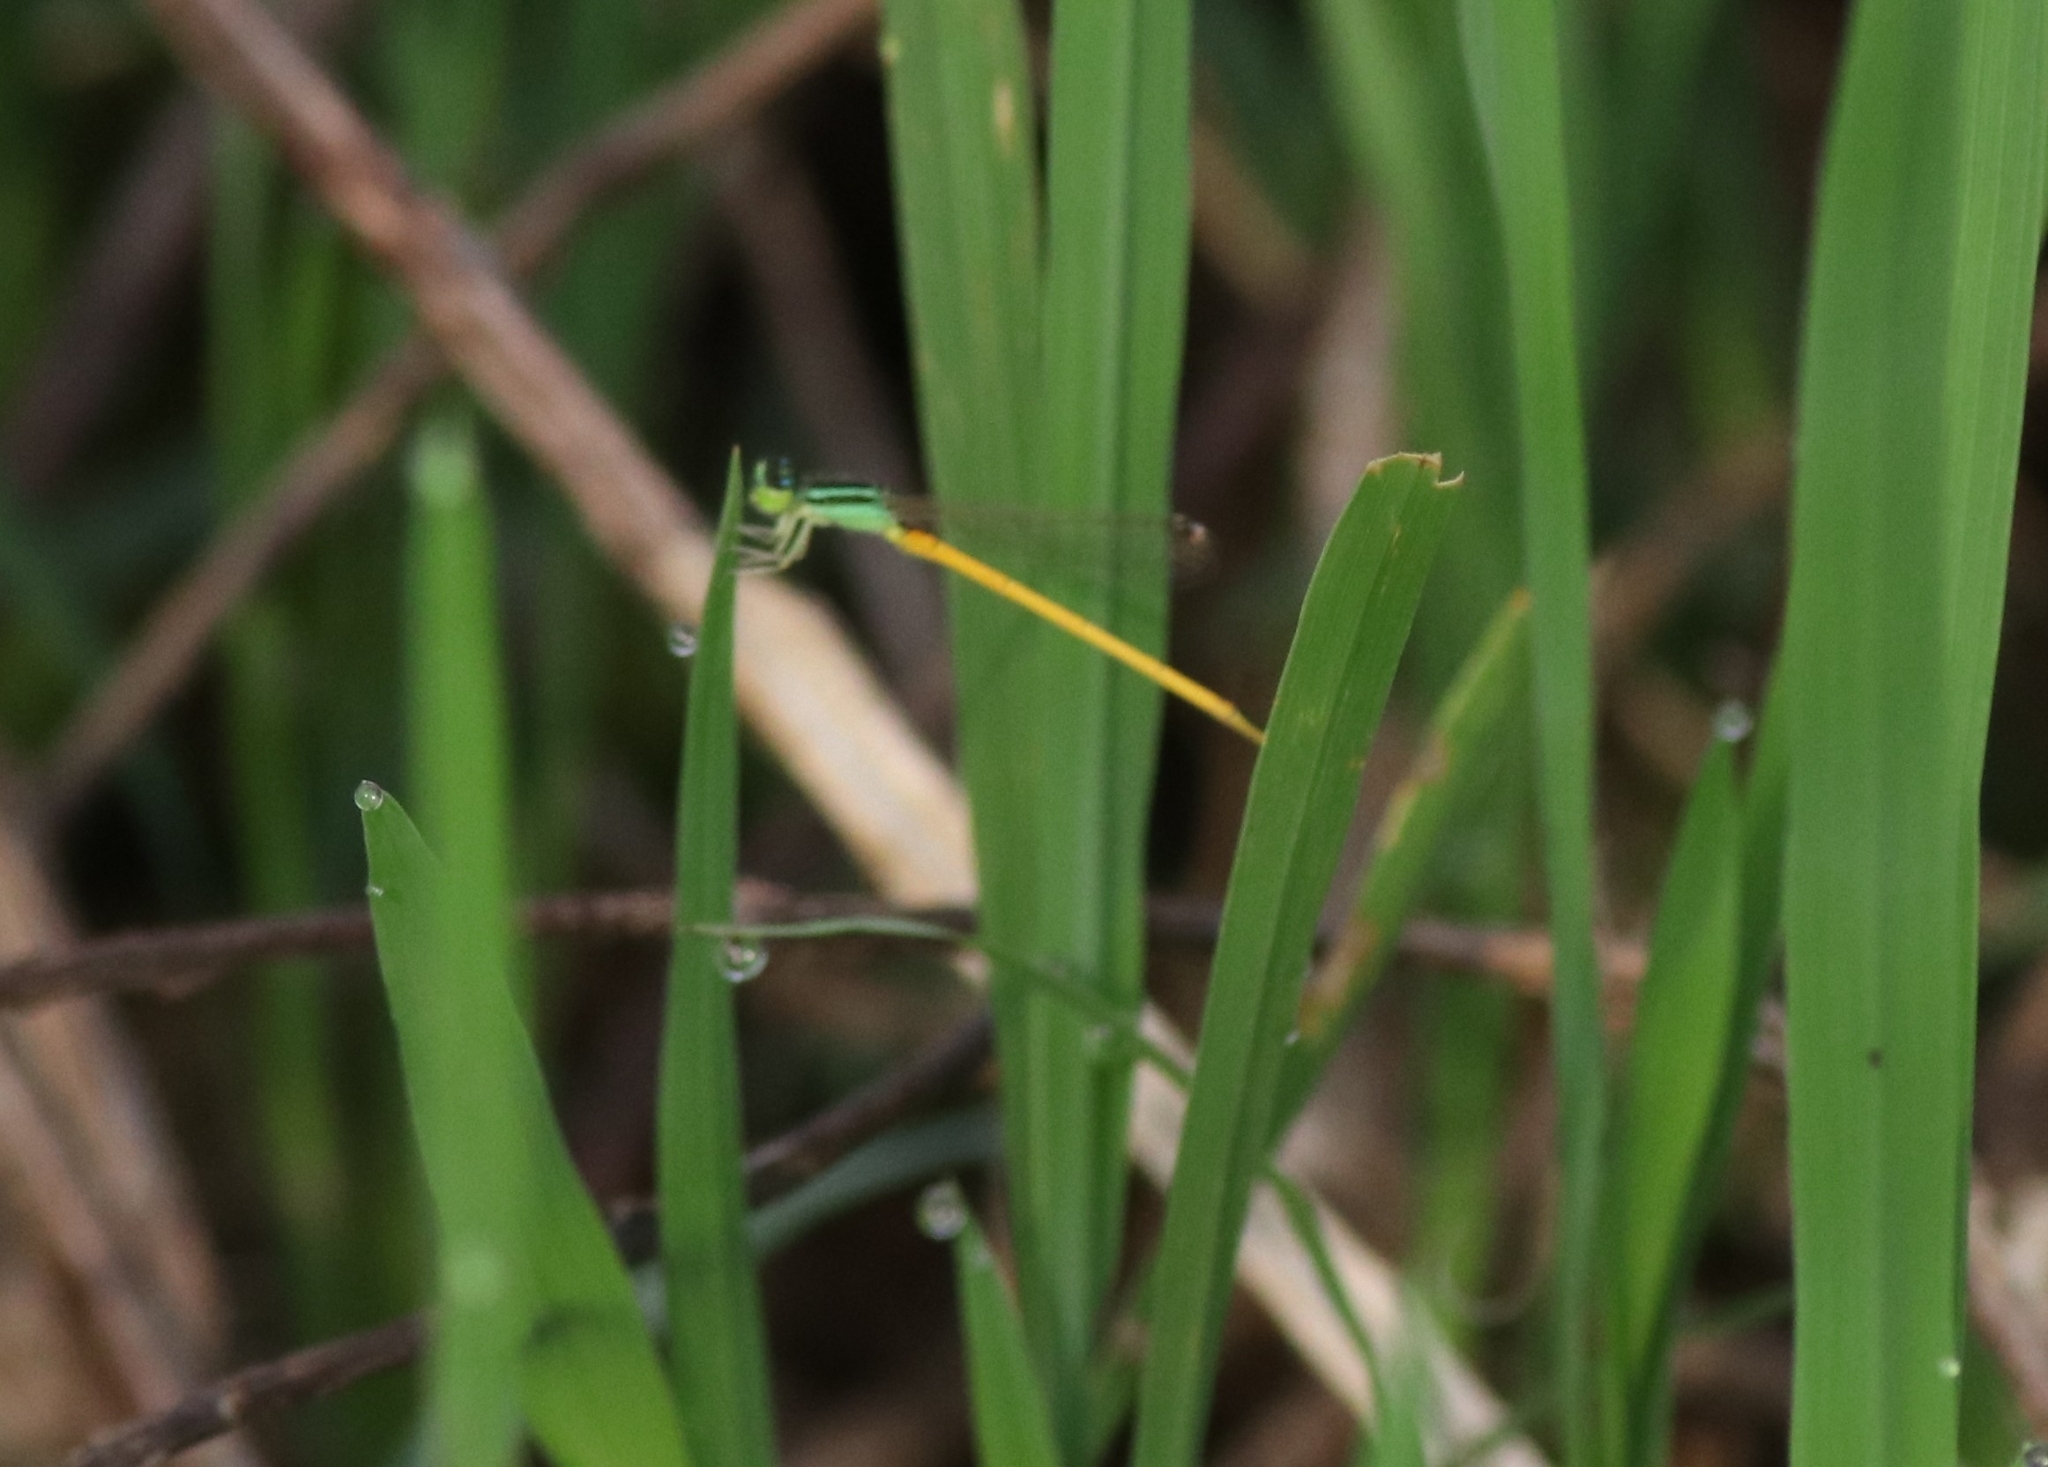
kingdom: Animalia
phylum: Arthropoda
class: Insecta
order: Odonata
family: Coenagrionidae
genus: Ischnura
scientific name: Ischnura rubilio
